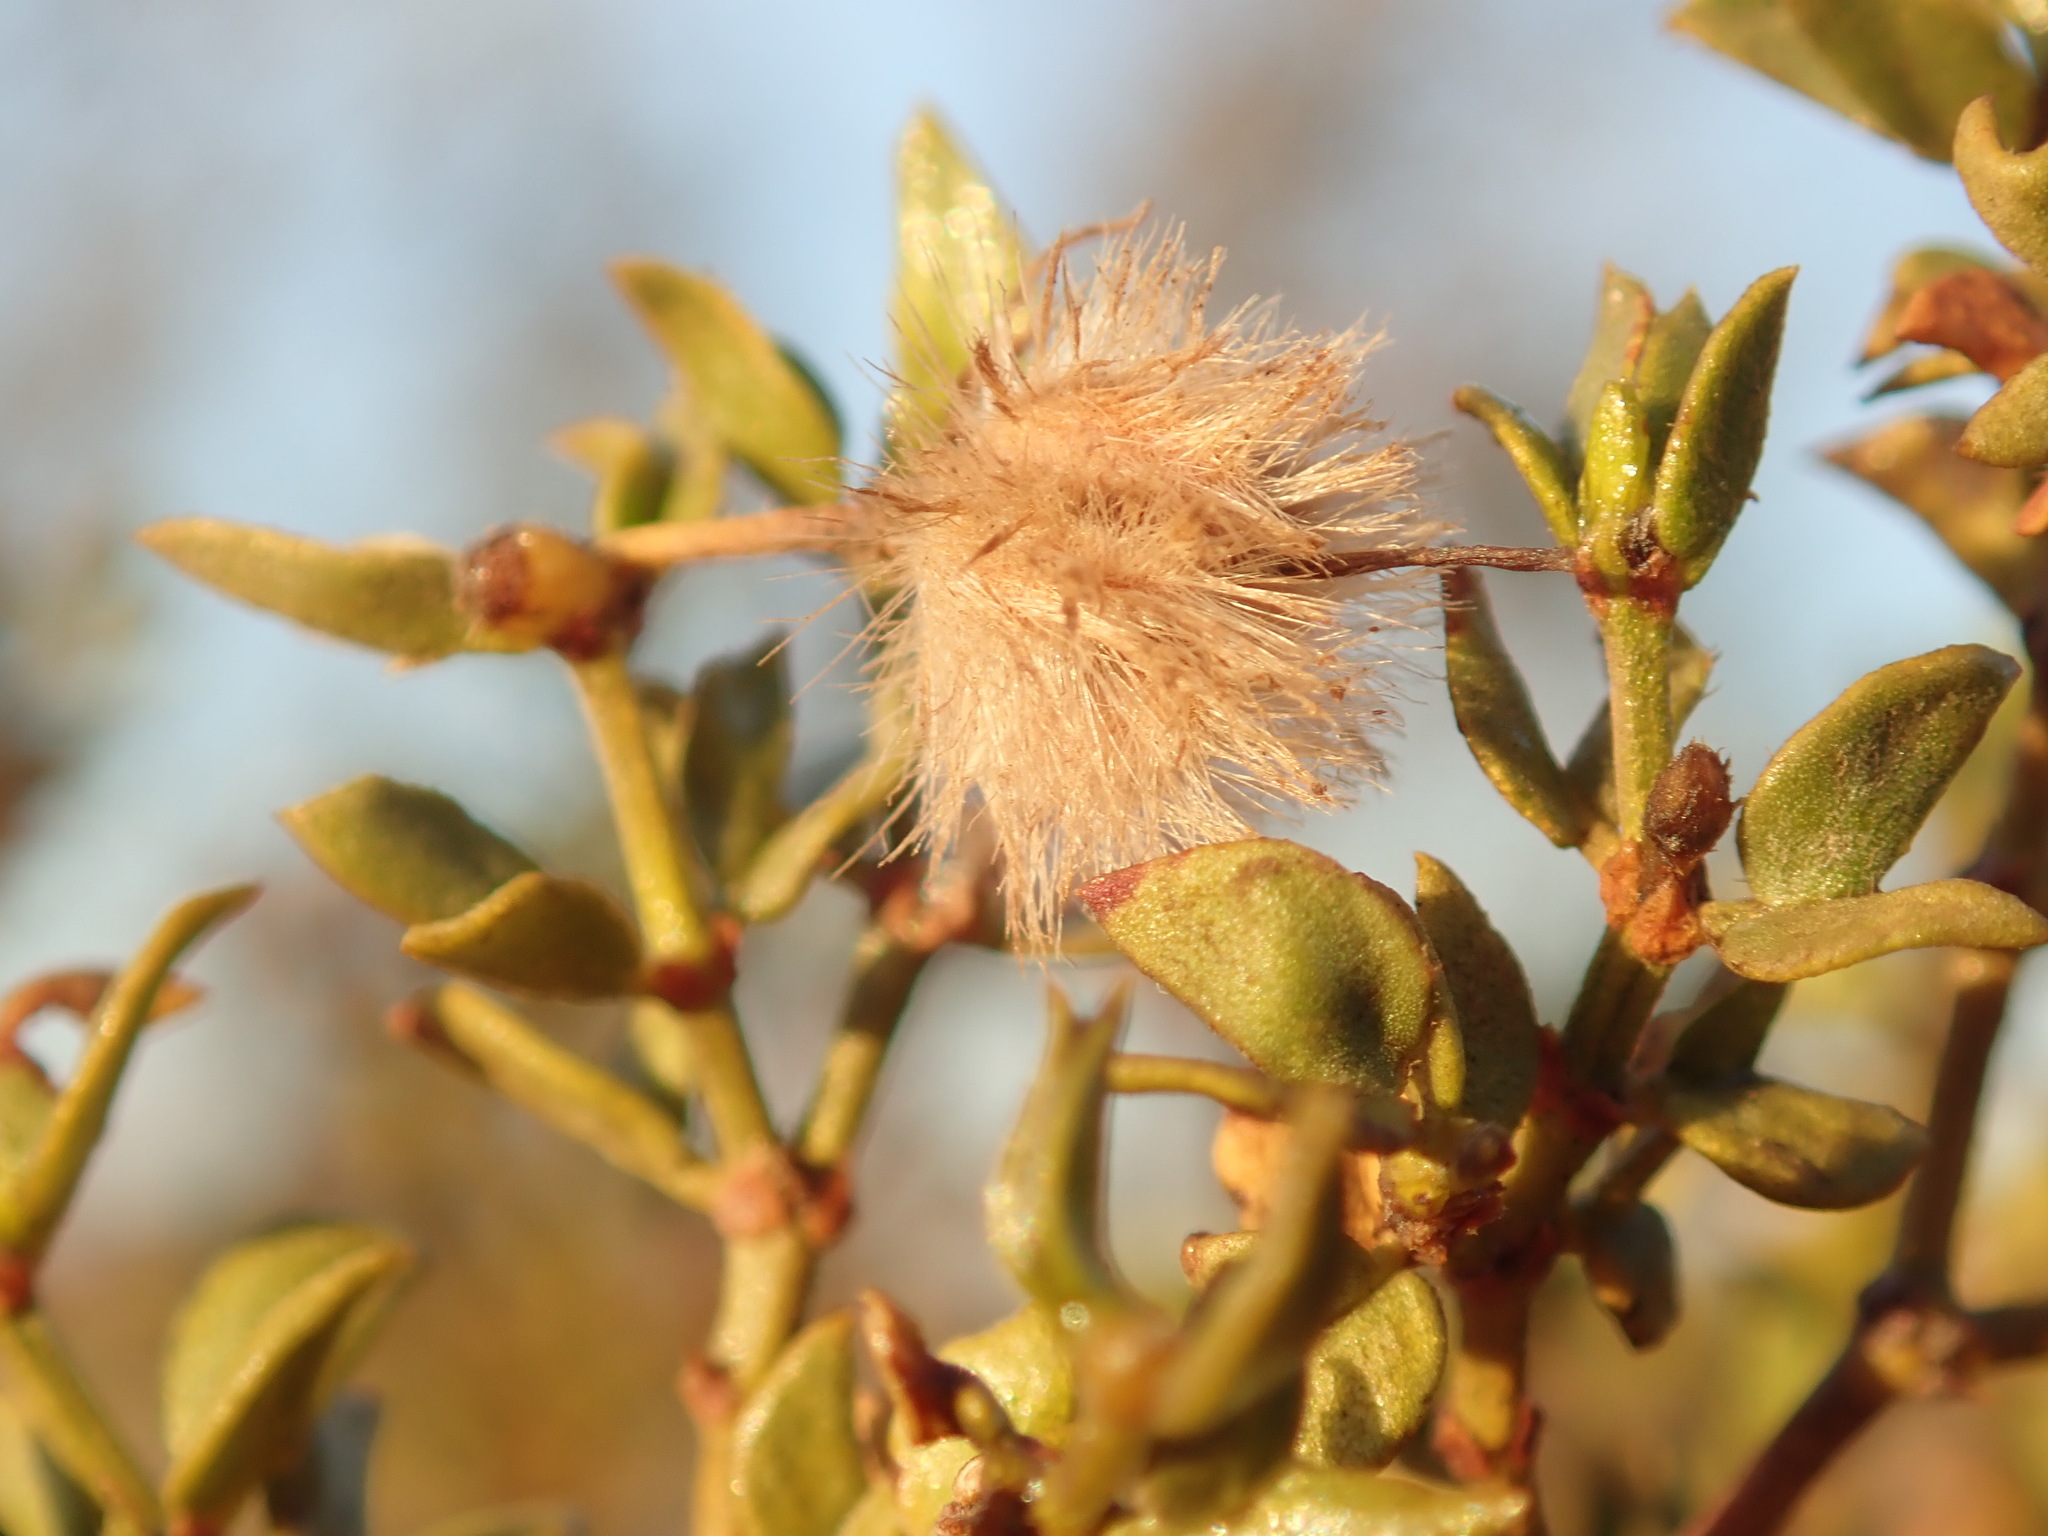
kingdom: Plantae
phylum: Tracheophyta
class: Magnoliopsida
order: Zygophyllales
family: Zygophyllaceae
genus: Larrea
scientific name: Larrea tridentata
